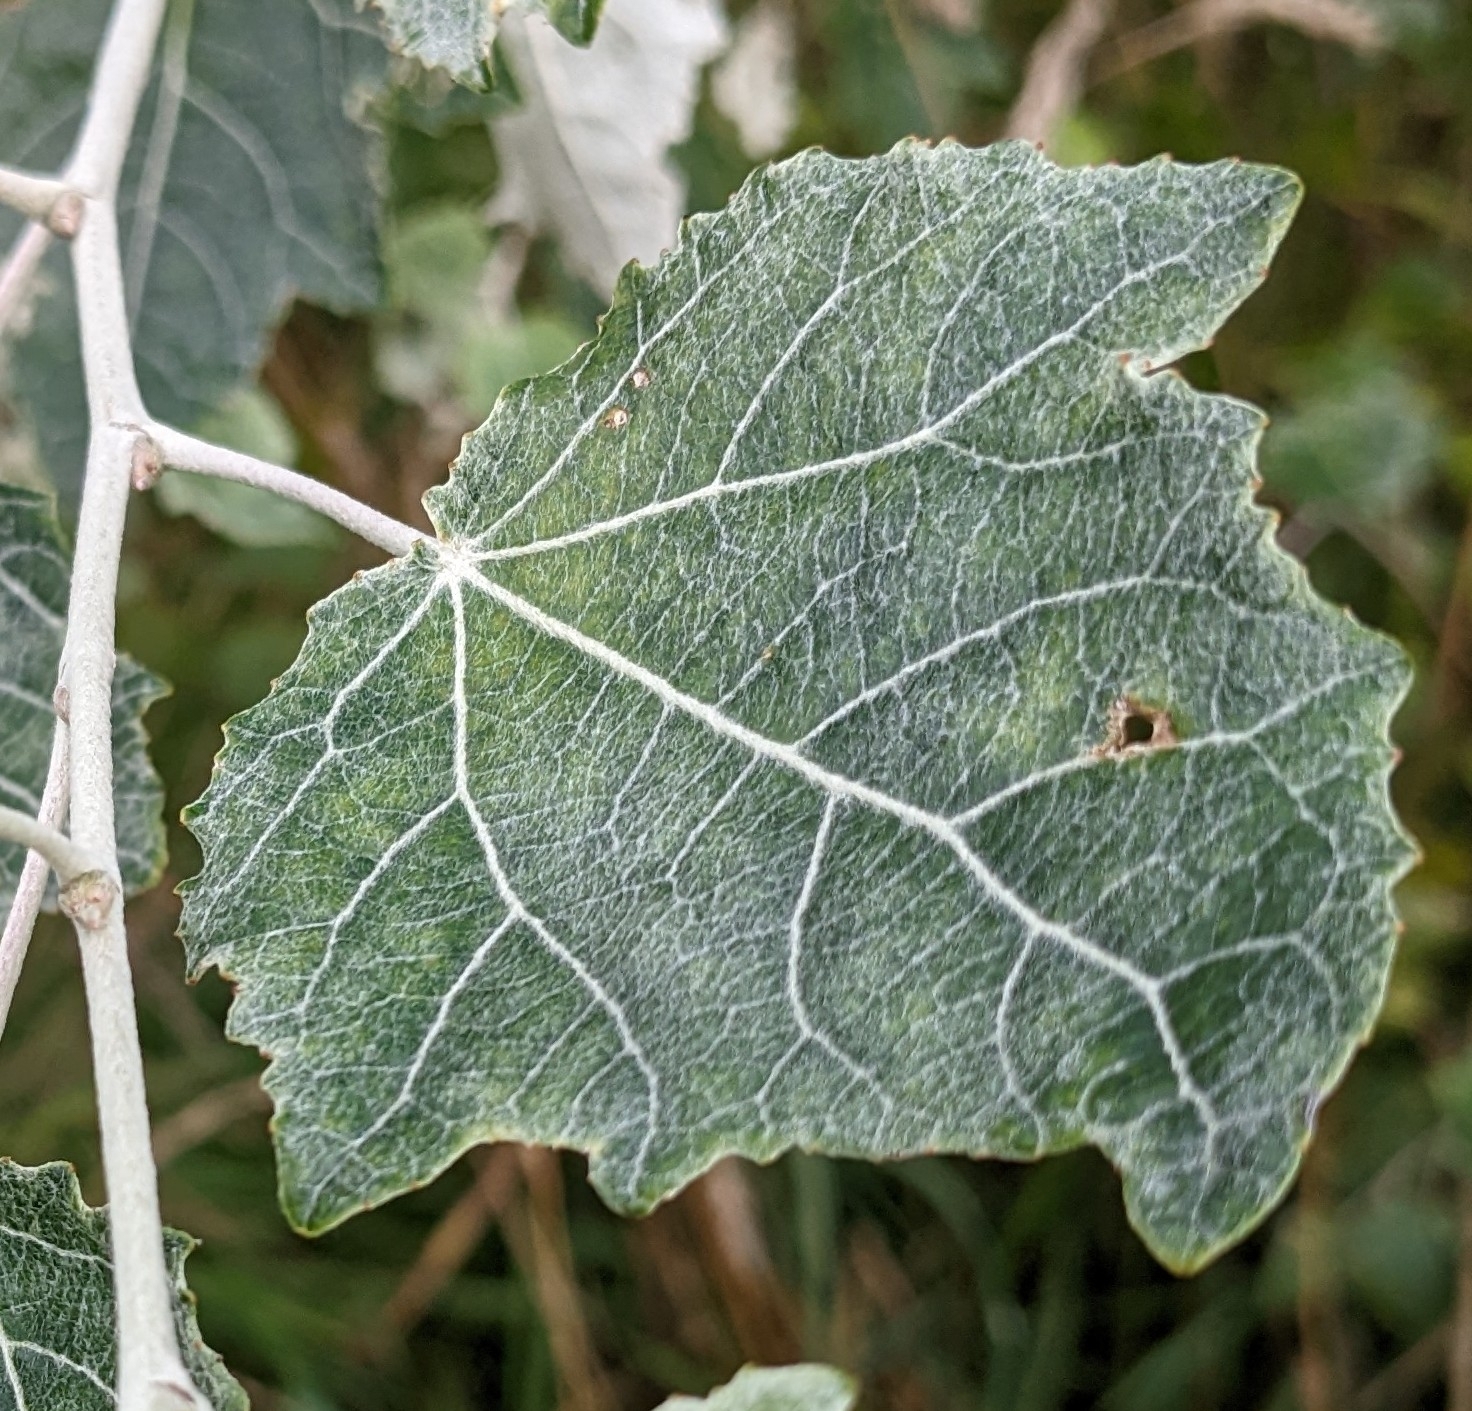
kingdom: Plantae
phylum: Tracheophyta
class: Magnoliopsida
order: Malpighiales
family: Salicaceae
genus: Populus
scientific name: Populus alba
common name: White poplar
